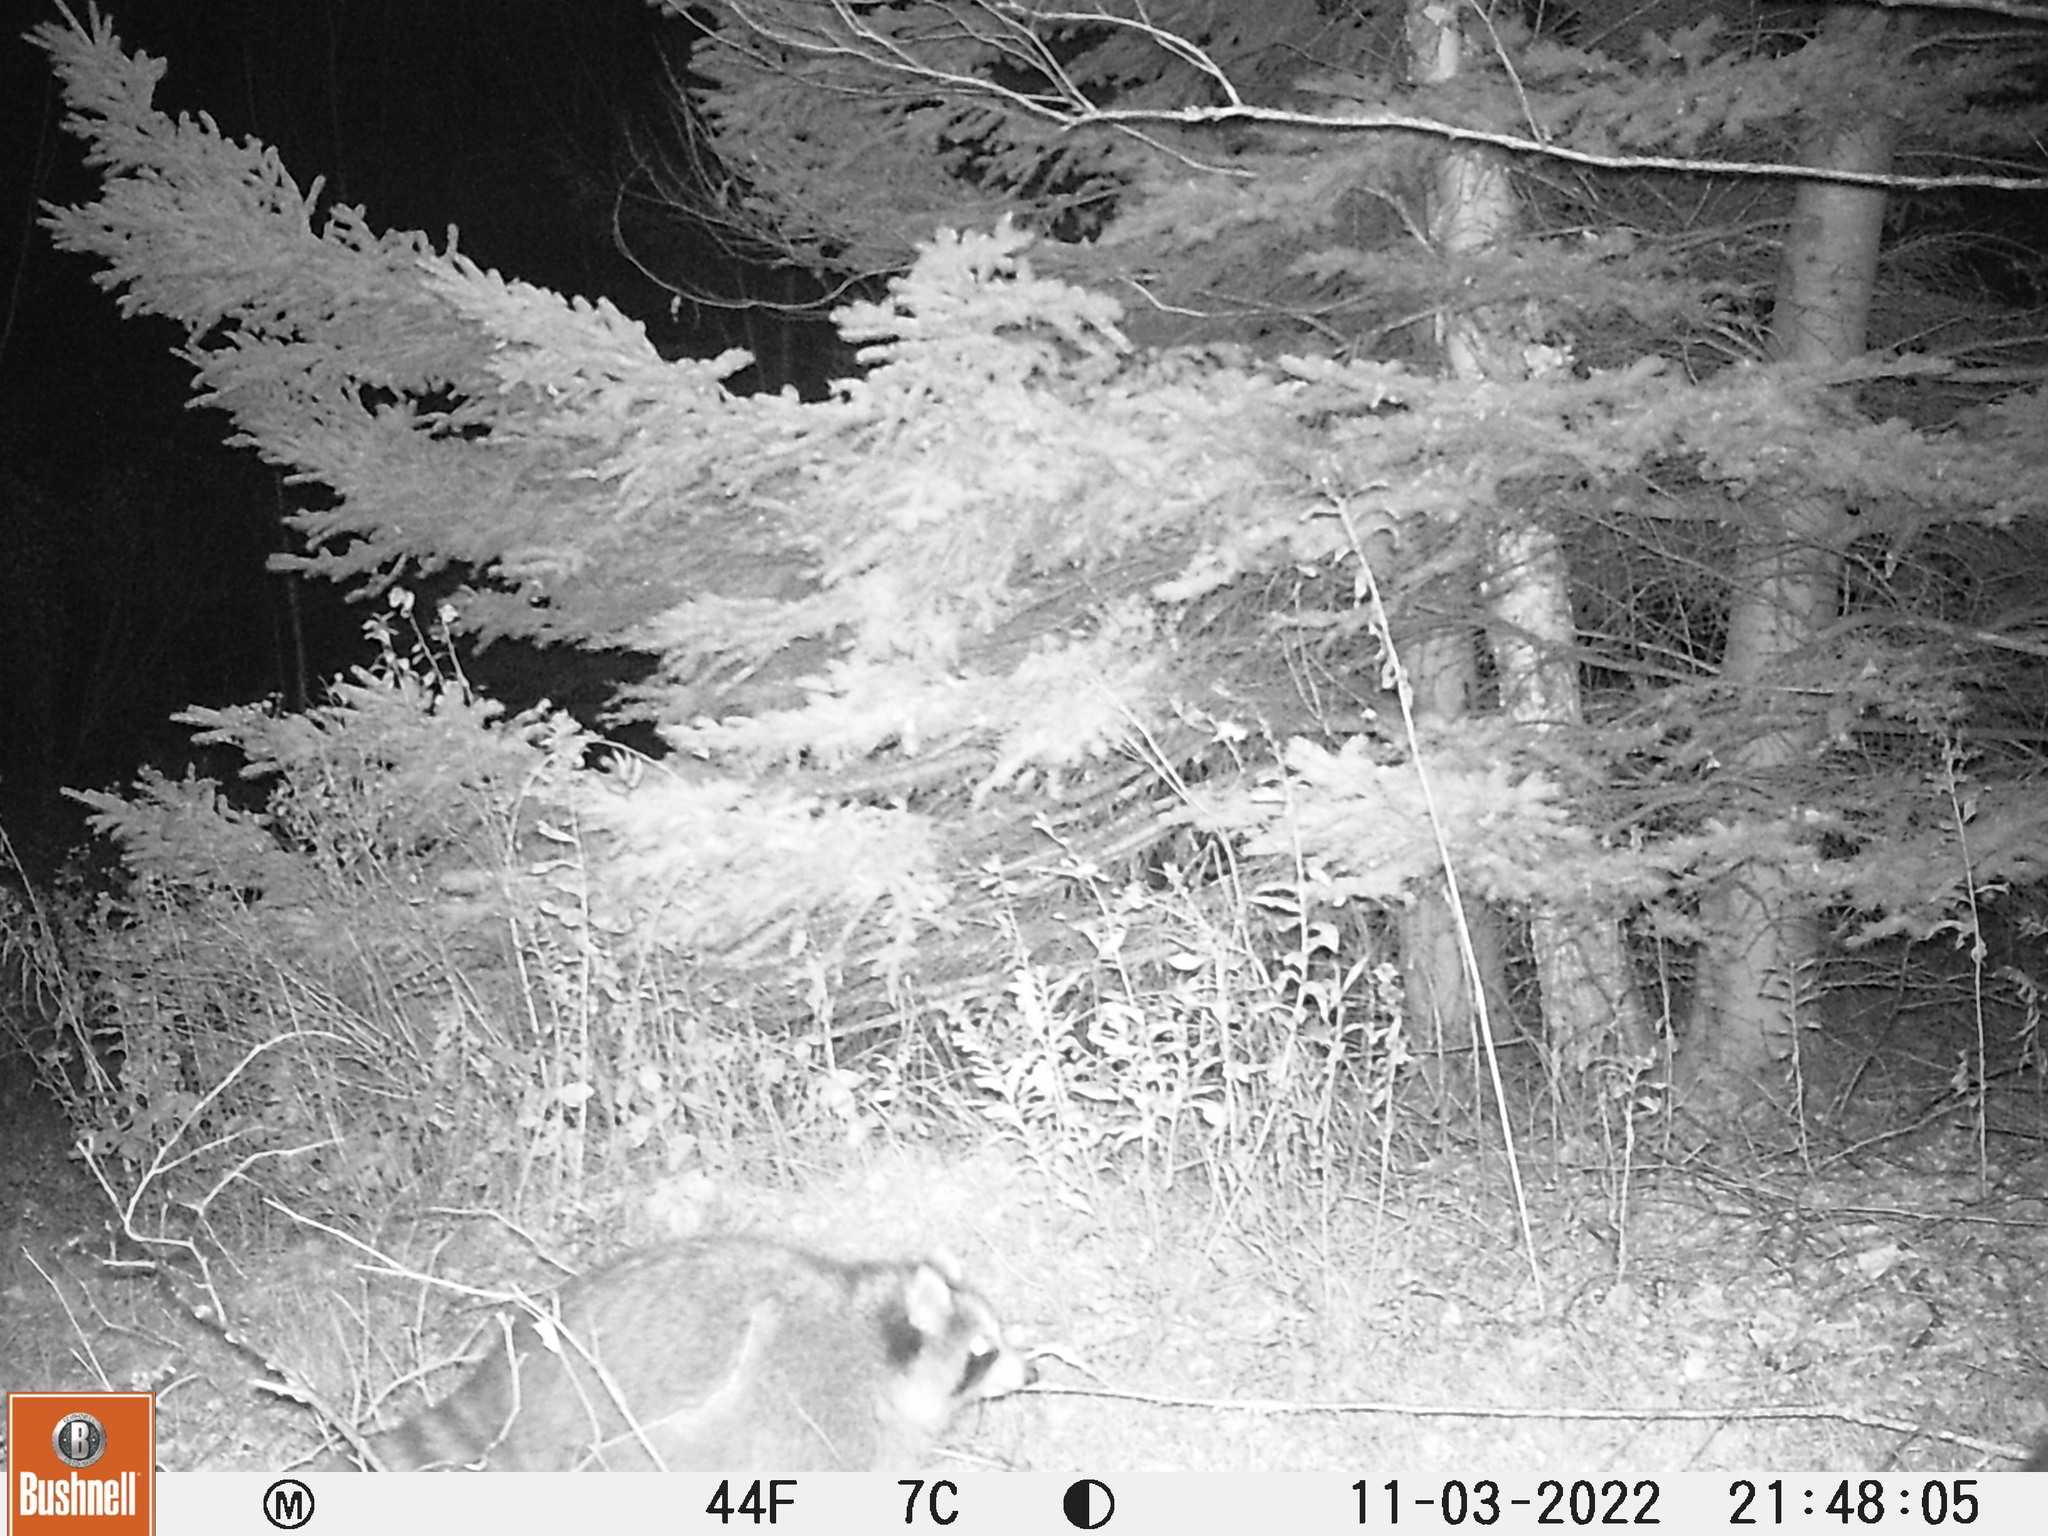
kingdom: Animalia
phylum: Chordata
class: Mammalia
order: Carnivora
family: Procyonidae
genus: Procyon
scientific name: Procyon lotor
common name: Raccoon
